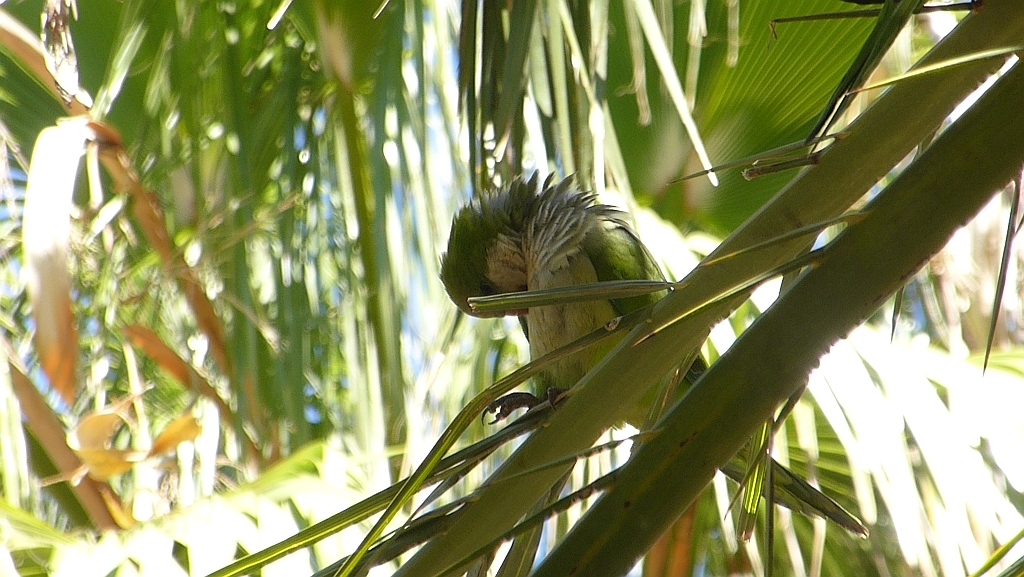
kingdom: Animalia
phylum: Chordata
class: Aves
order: Psittaciformes
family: Psittacidae
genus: Myiopsitta
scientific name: Myiopsitta monachus
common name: Monk parakeet
